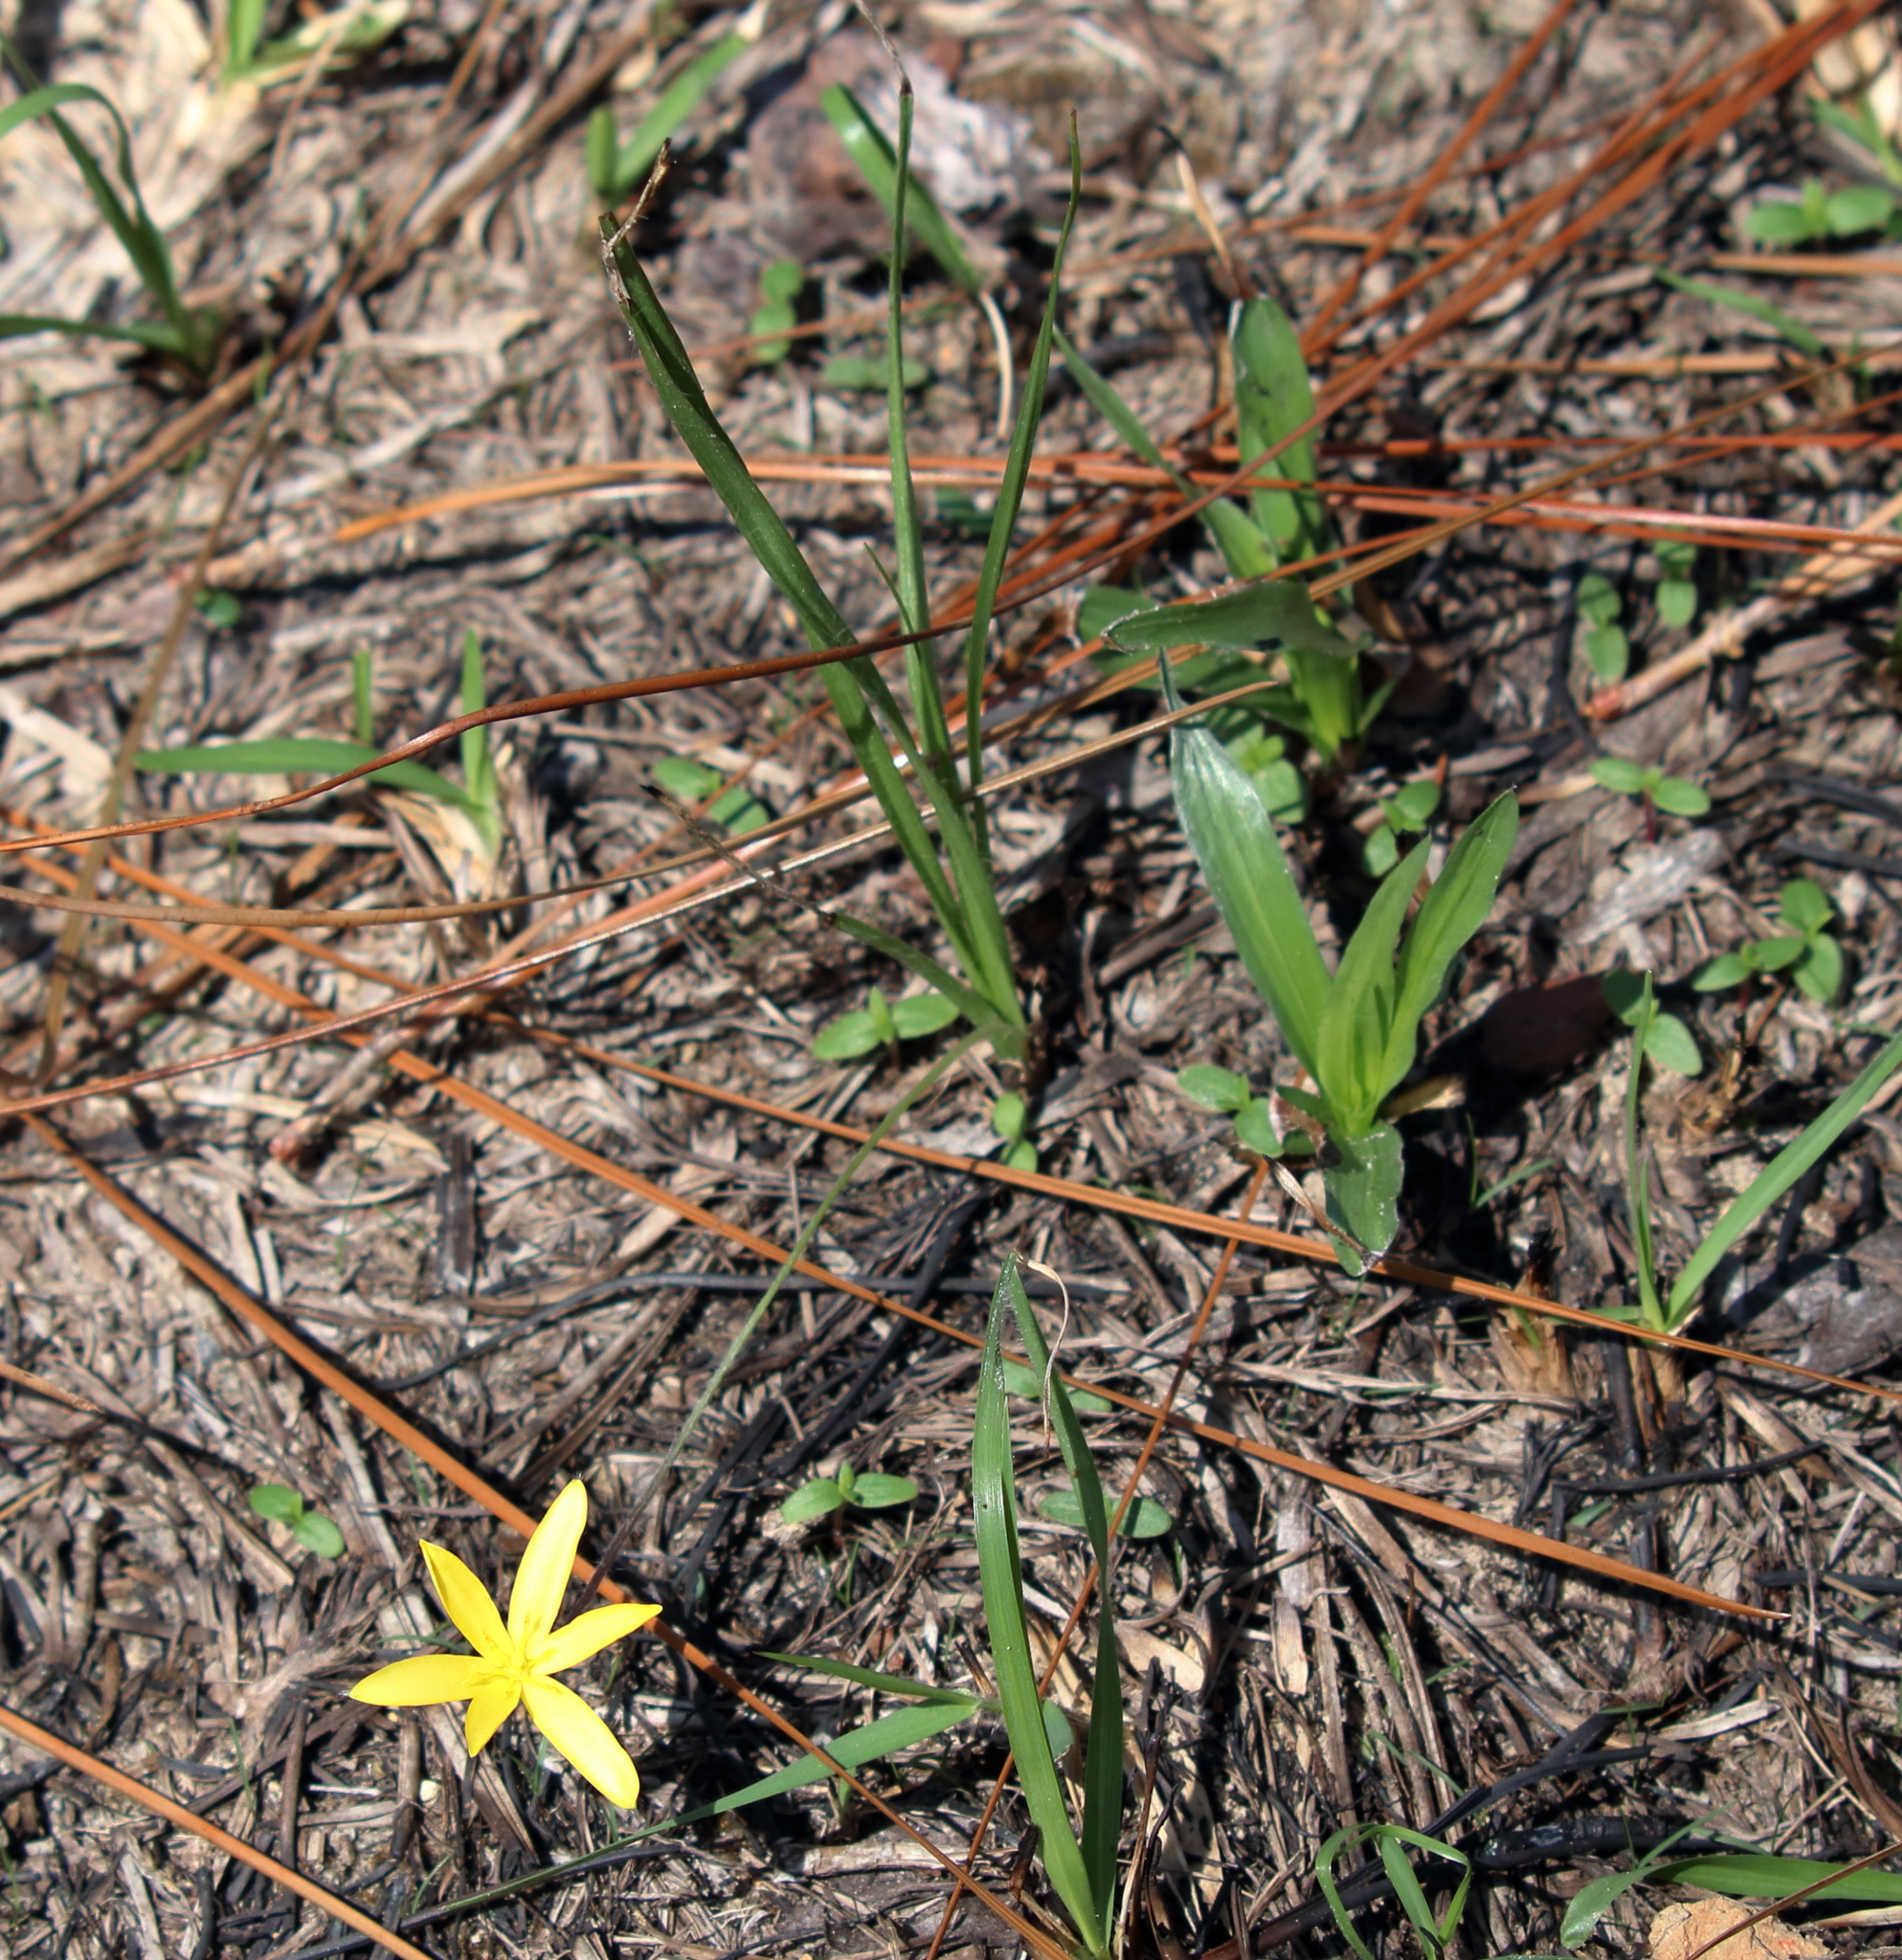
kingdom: Plantae
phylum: Tracheophyta
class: Liliopsida
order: Asparagales
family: Hypoxidaceae
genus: Hypoxis
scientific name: Hypoxis hirsuta
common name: Common goldstar
